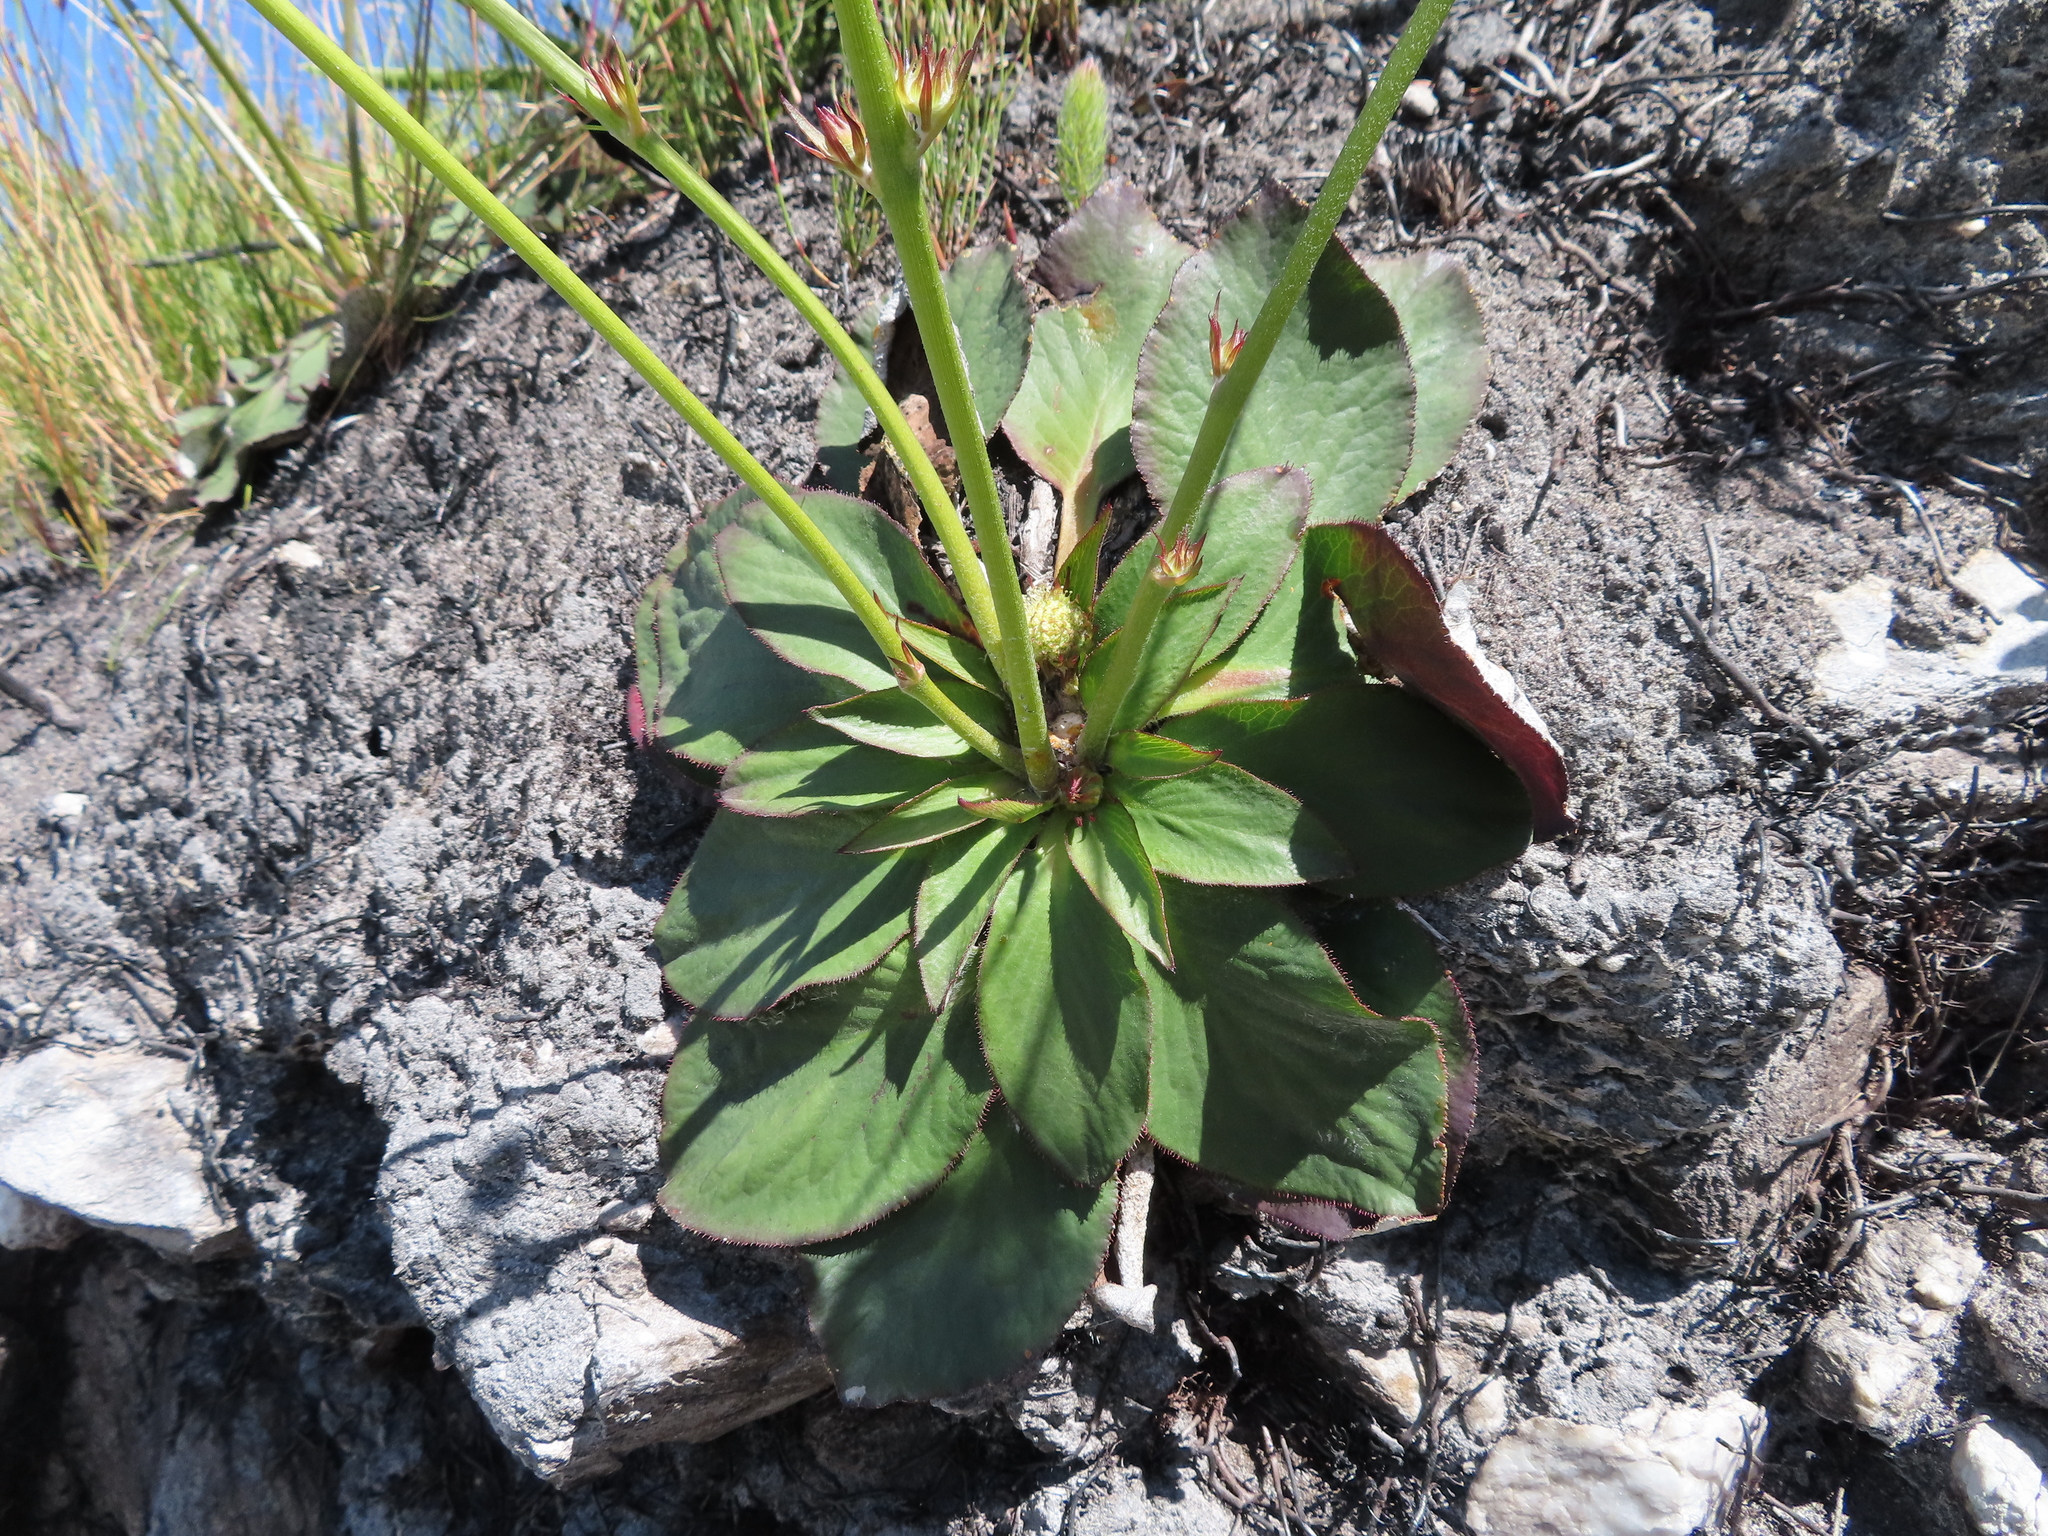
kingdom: Plantae
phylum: Tracheophyta
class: Magnoliopsida
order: Apiales
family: Apiaceae
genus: Hermas
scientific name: Hermas ciliata
